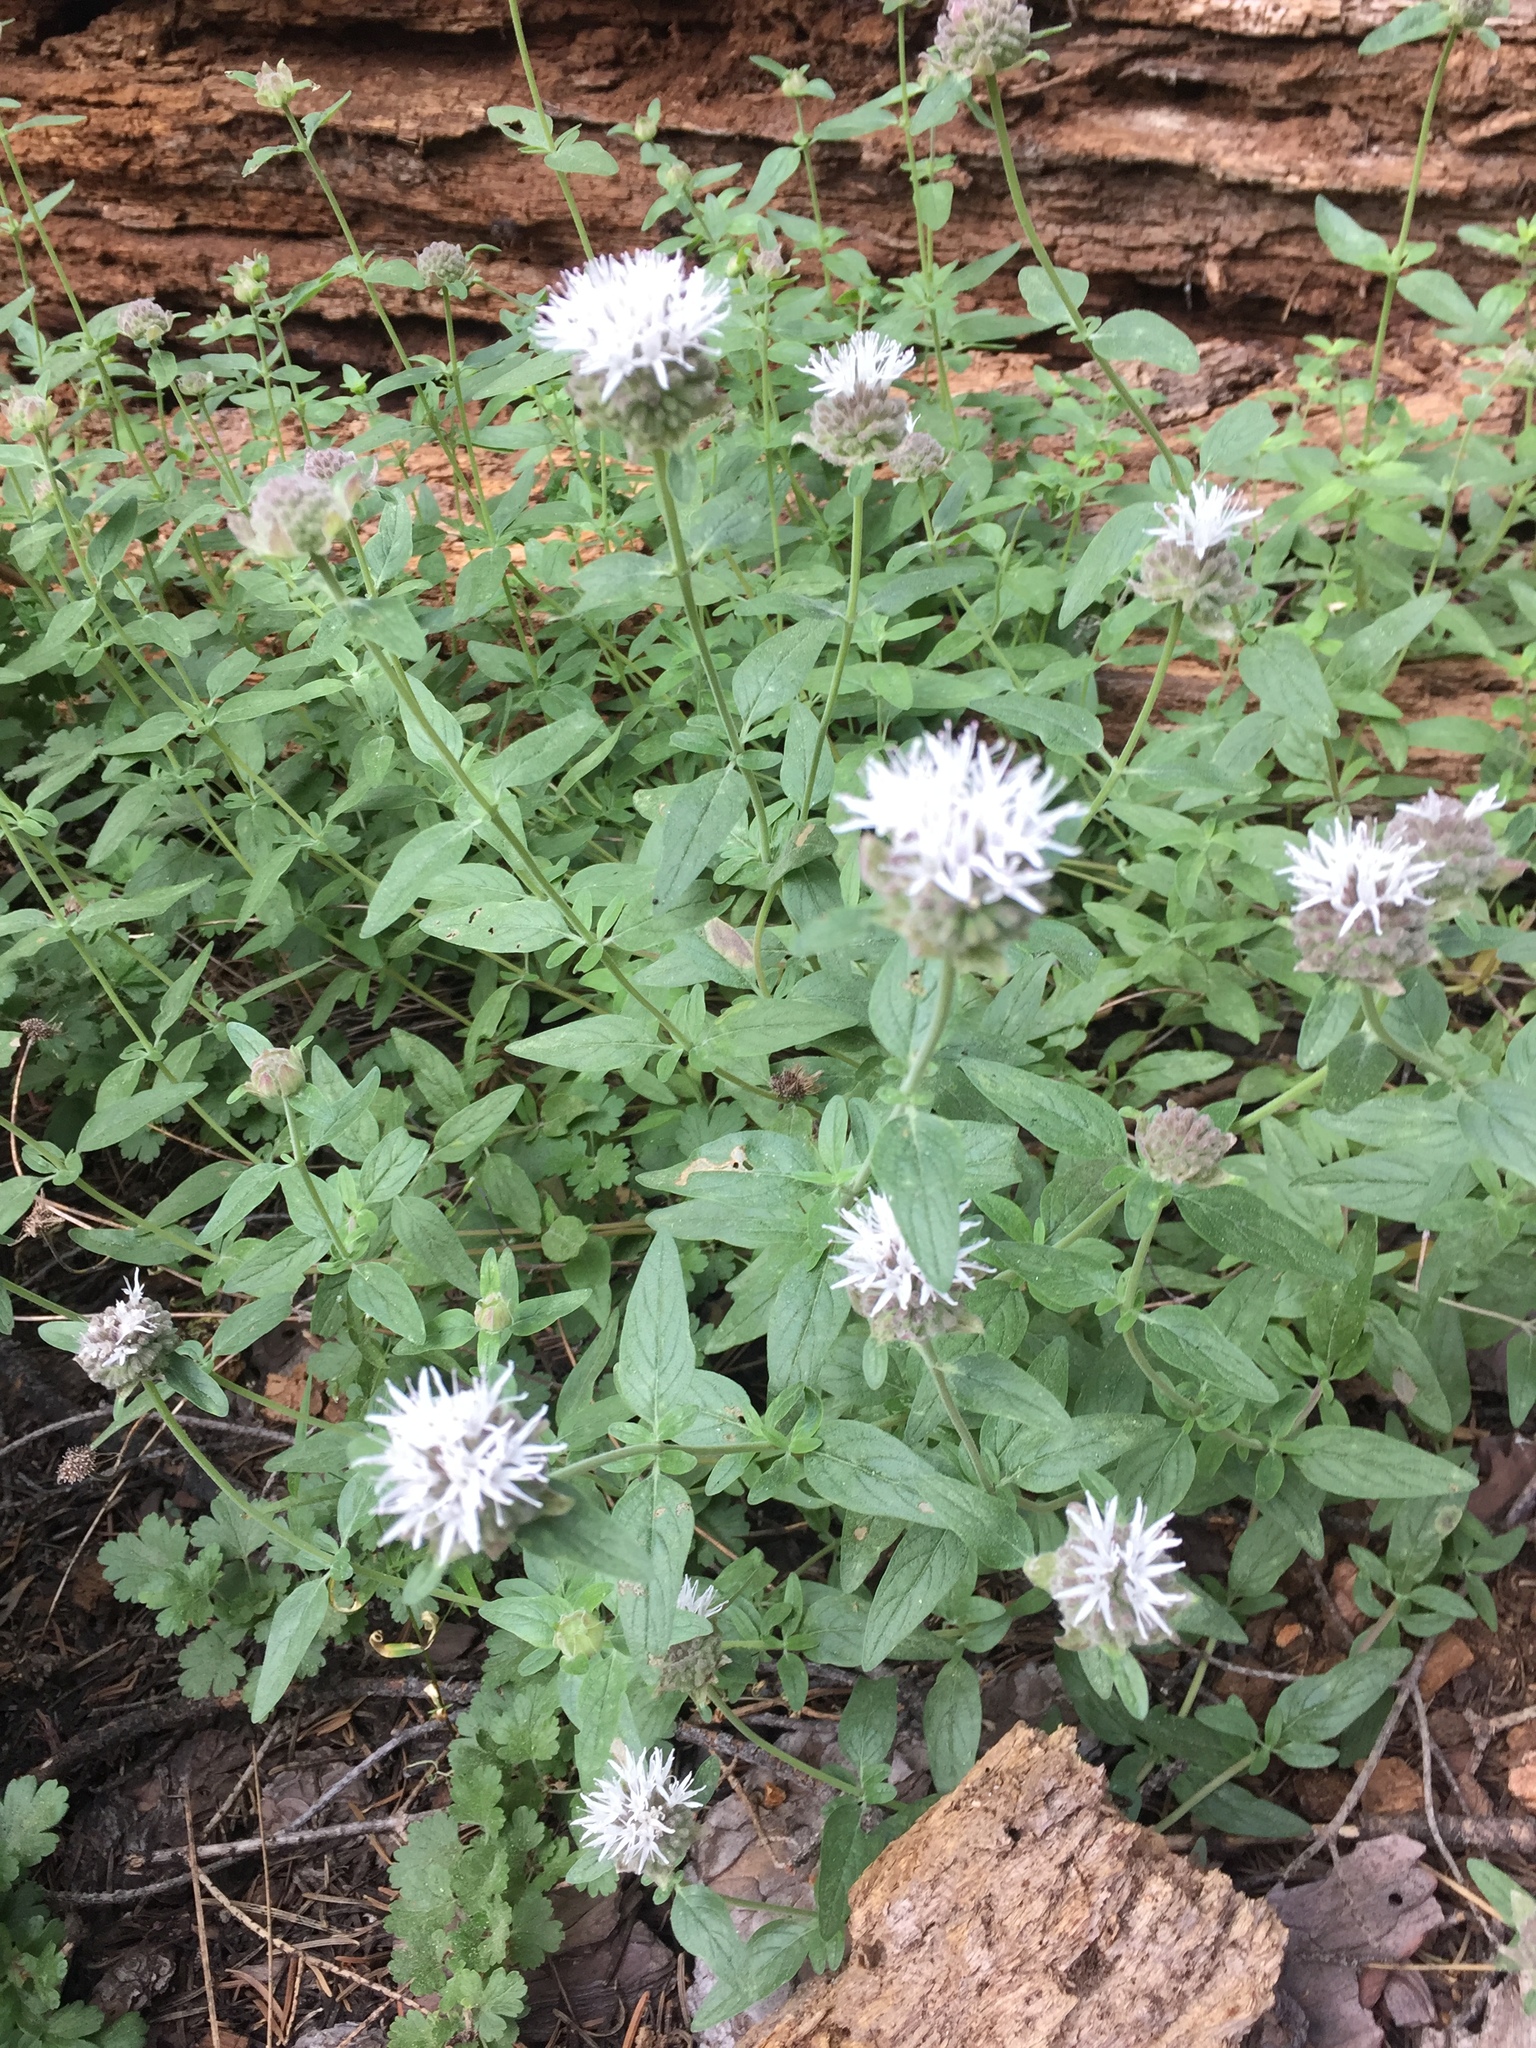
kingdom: Plantae
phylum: Tracheophyta
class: Magnoliopsida
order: Lamiales
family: Lamiaceae
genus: Monardella
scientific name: Monardella odoratissima
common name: Pacific monardella
